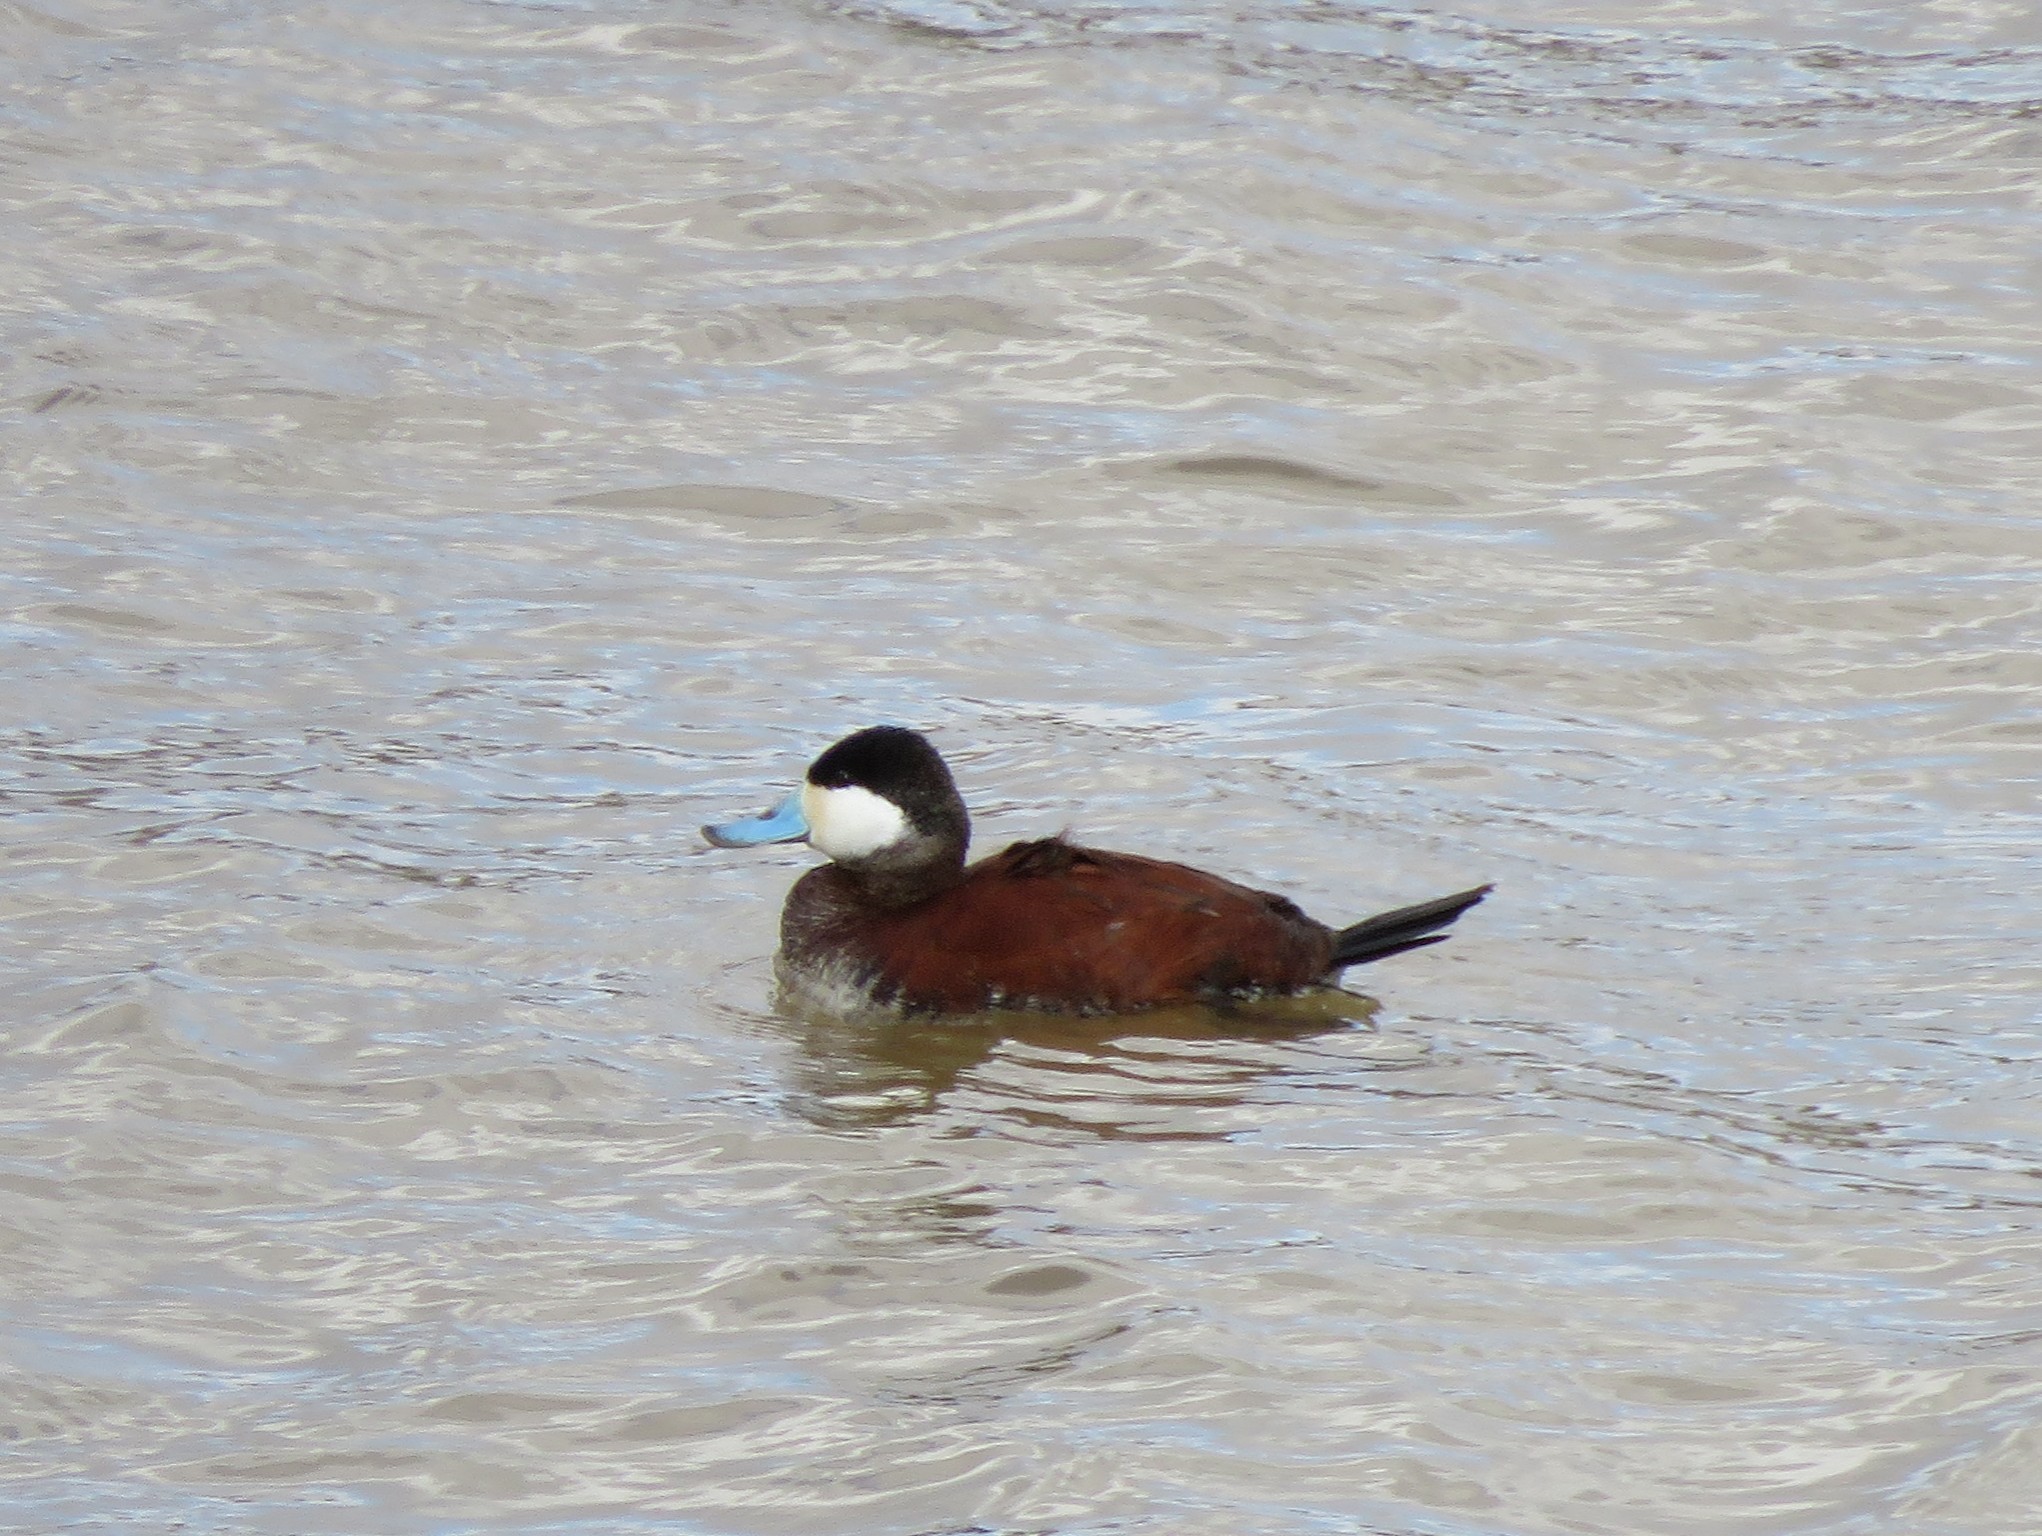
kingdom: Animalia
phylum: Chordata
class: Aves
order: Anseriformes
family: Anatidae
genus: Oxyura
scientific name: Oxyura jamaicensis
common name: Ruddy duck
